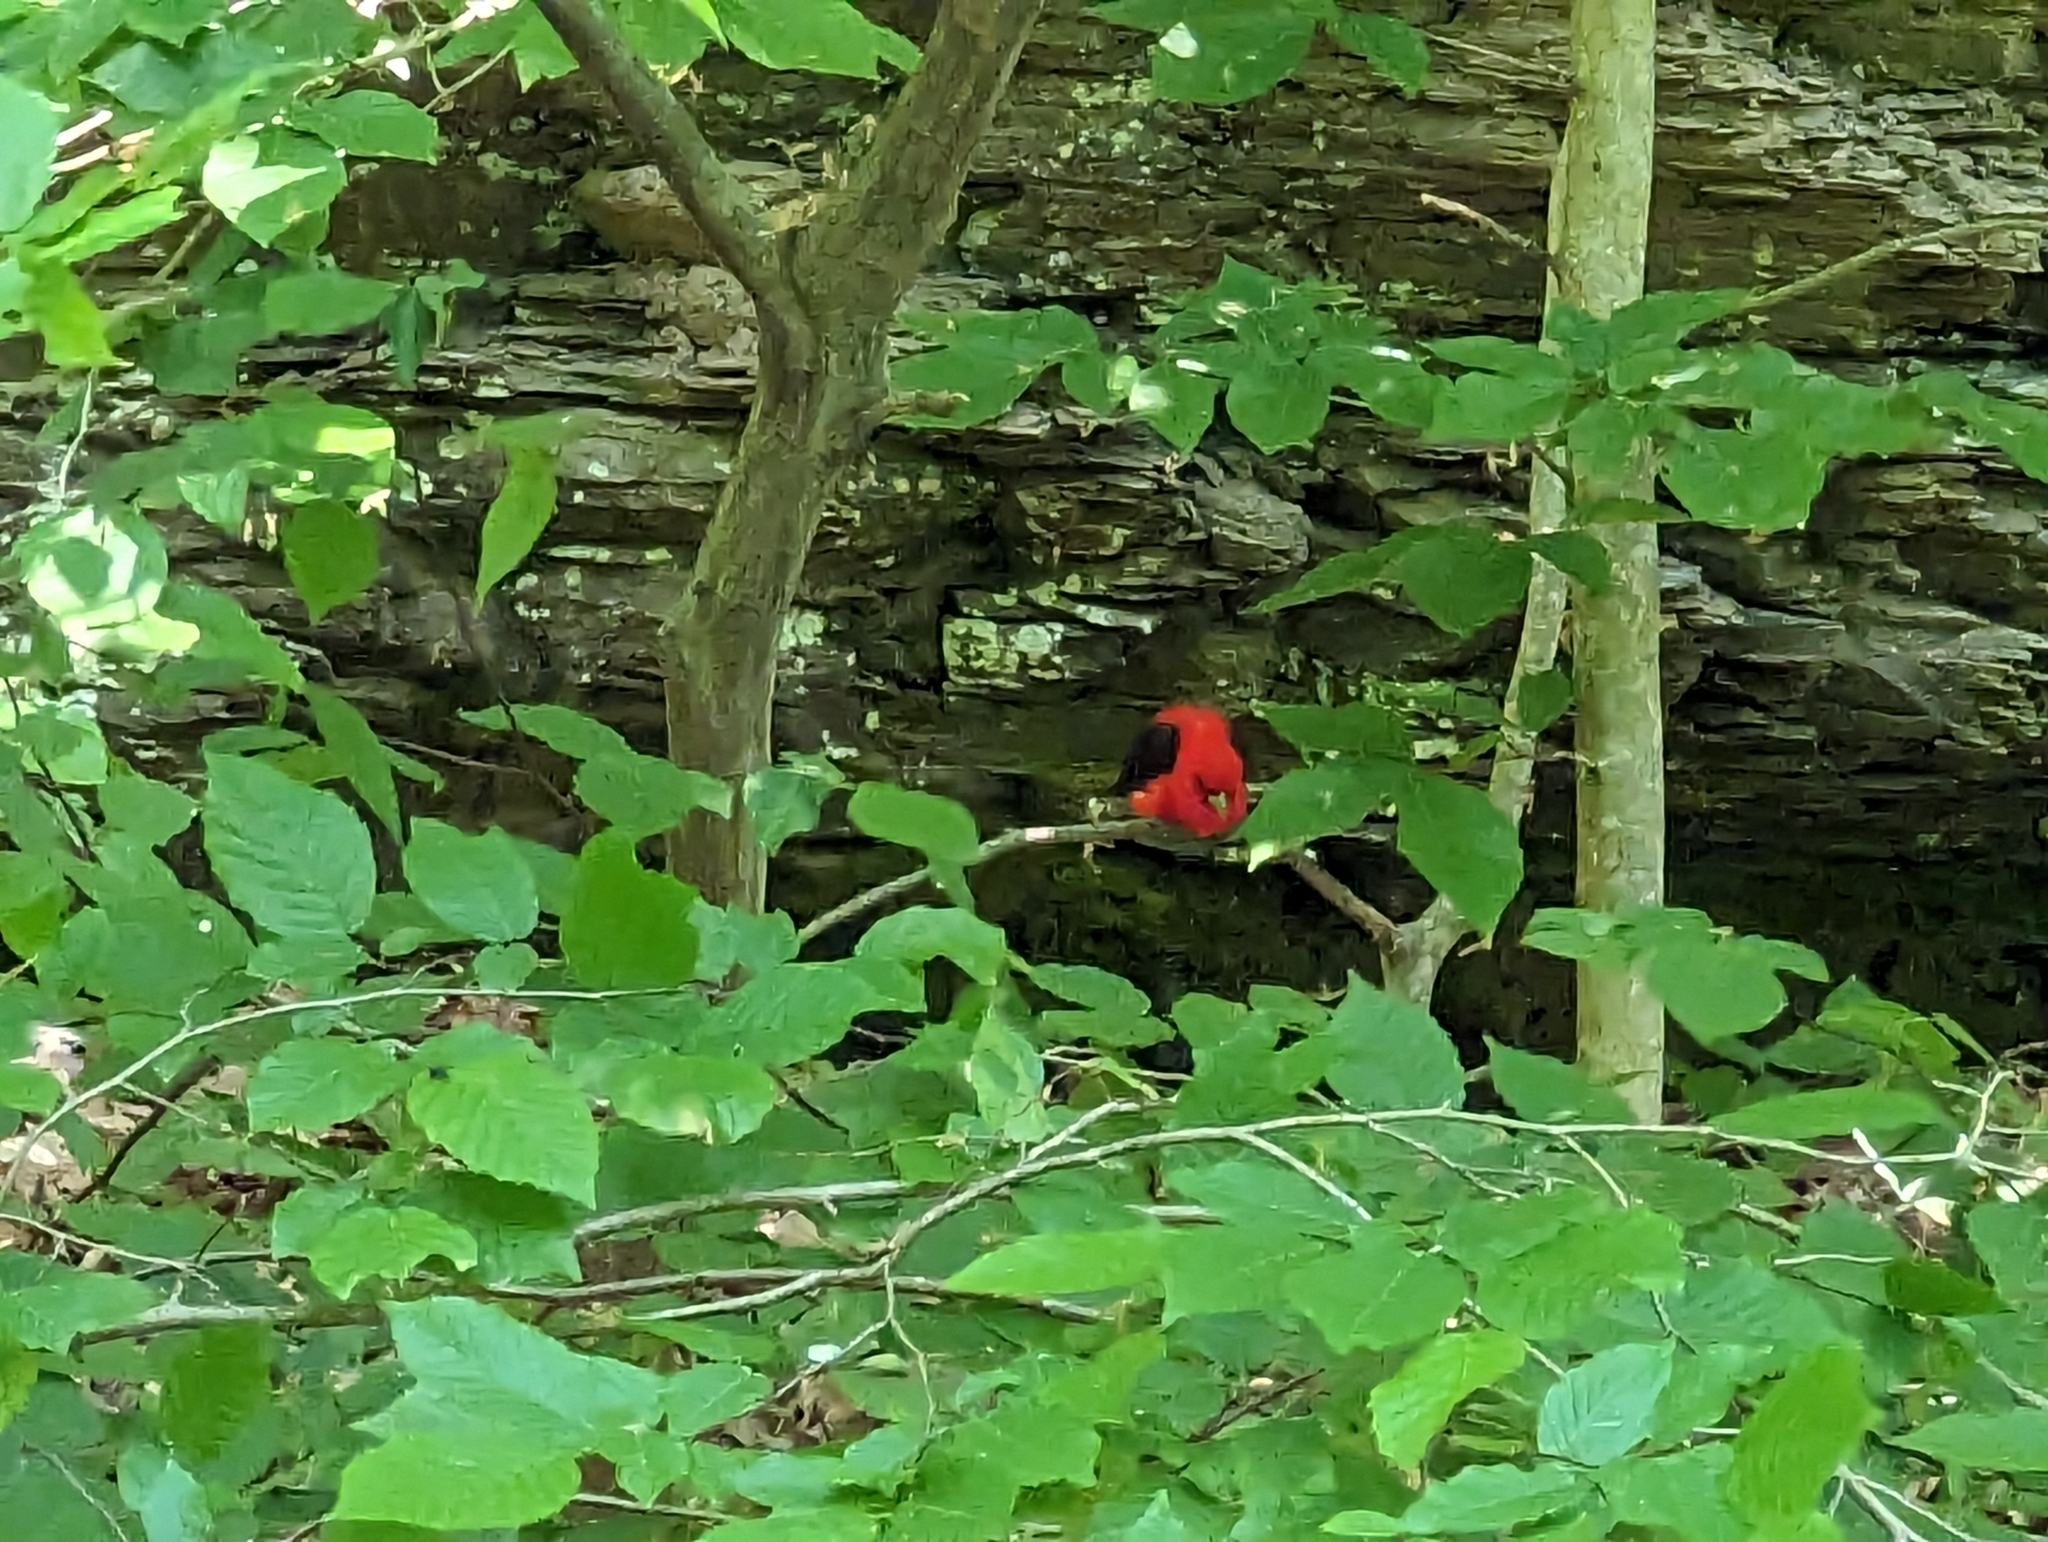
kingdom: Animalia
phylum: Chordata
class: Aves
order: Passeriformes
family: Cardinalidae
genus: Piranga
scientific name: Piranga olivacea
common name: Scarlet tanager
